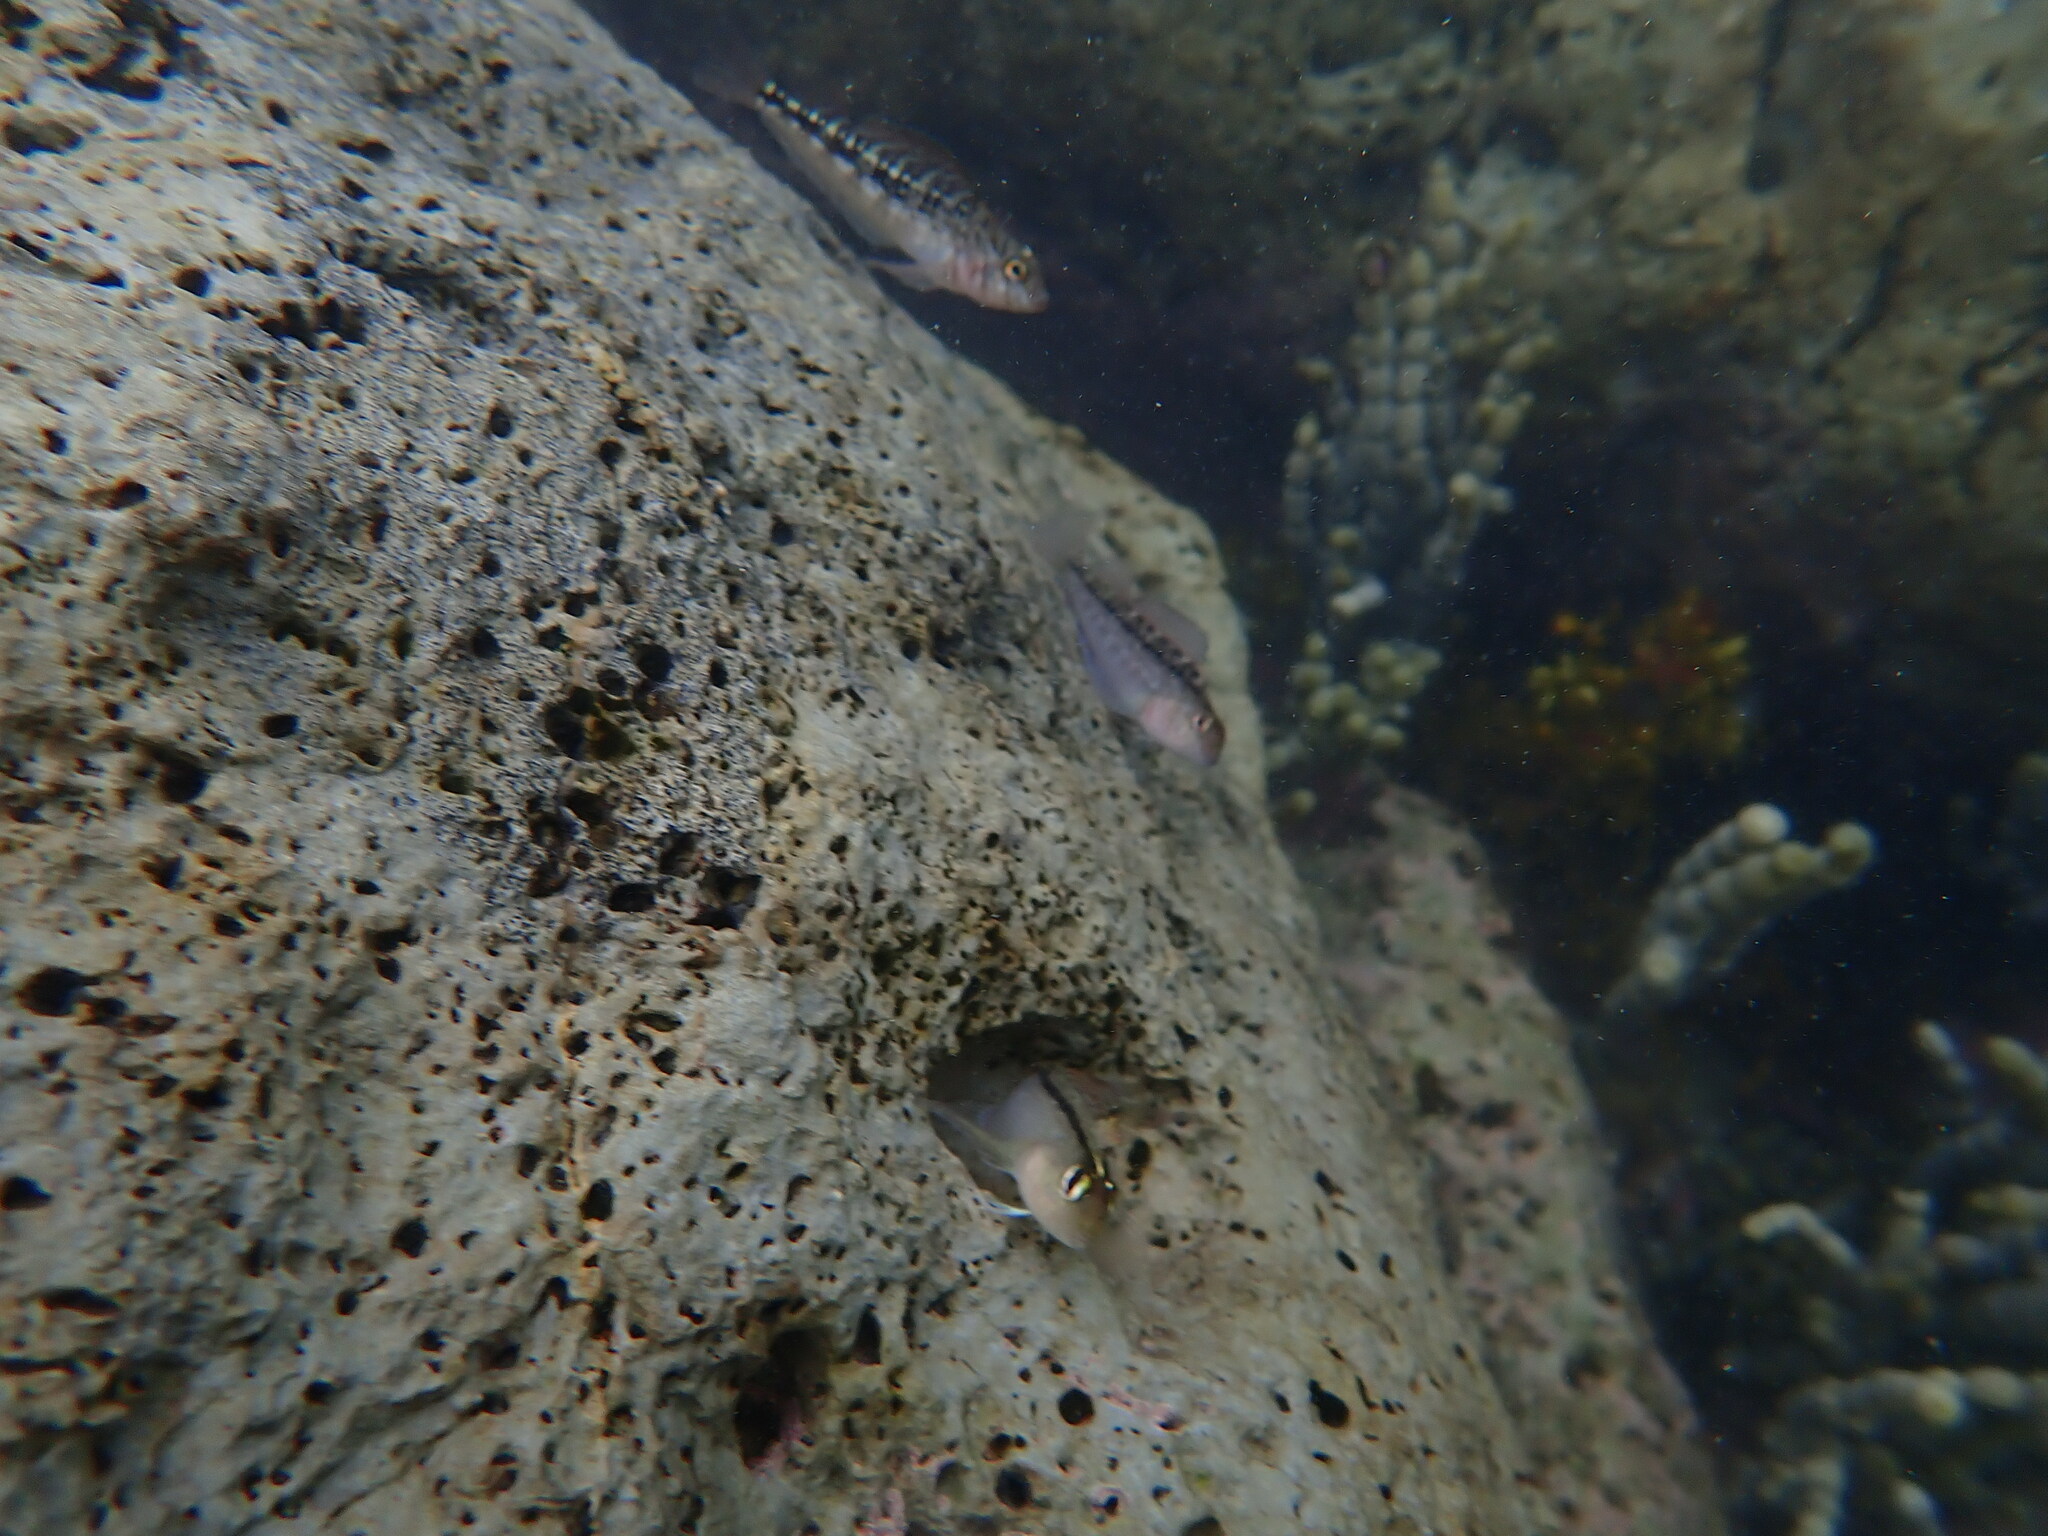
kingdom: Animalia
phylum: Chordata
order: Perciformes
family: Tripterygiidae
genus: Forsterygion
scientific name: Forsterygion lapillum
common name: Common triplefin
